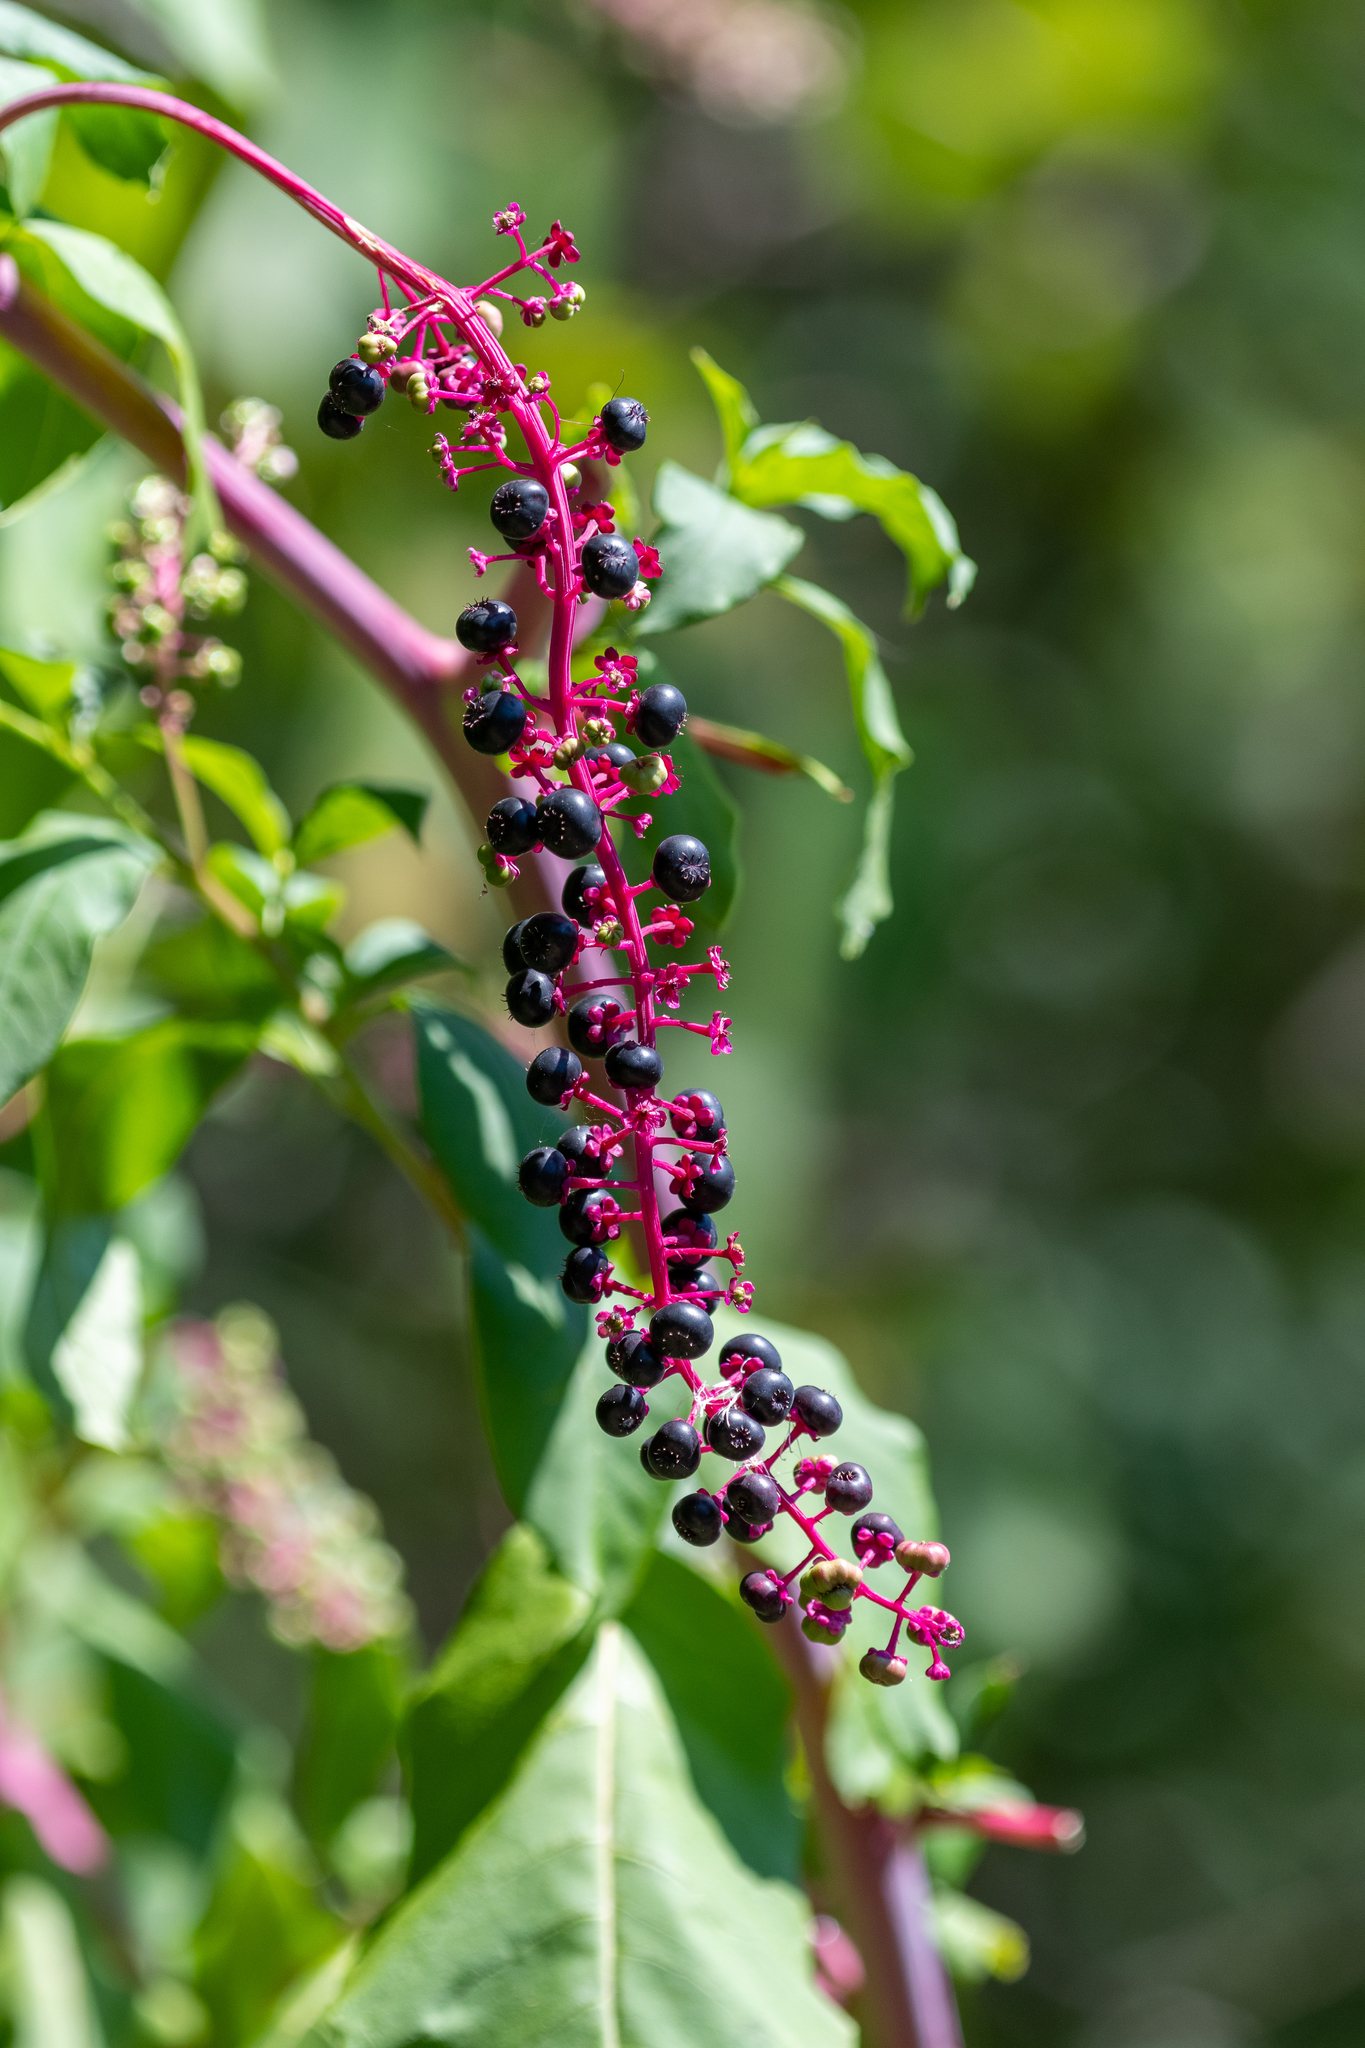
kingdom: Plantae
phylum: Tracheophyta
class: Magnoliopsida
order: Caryophyllales
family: Phytolaccaceae
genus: Phytolacca
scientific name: Phytolacca americana
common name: American pokeweed
